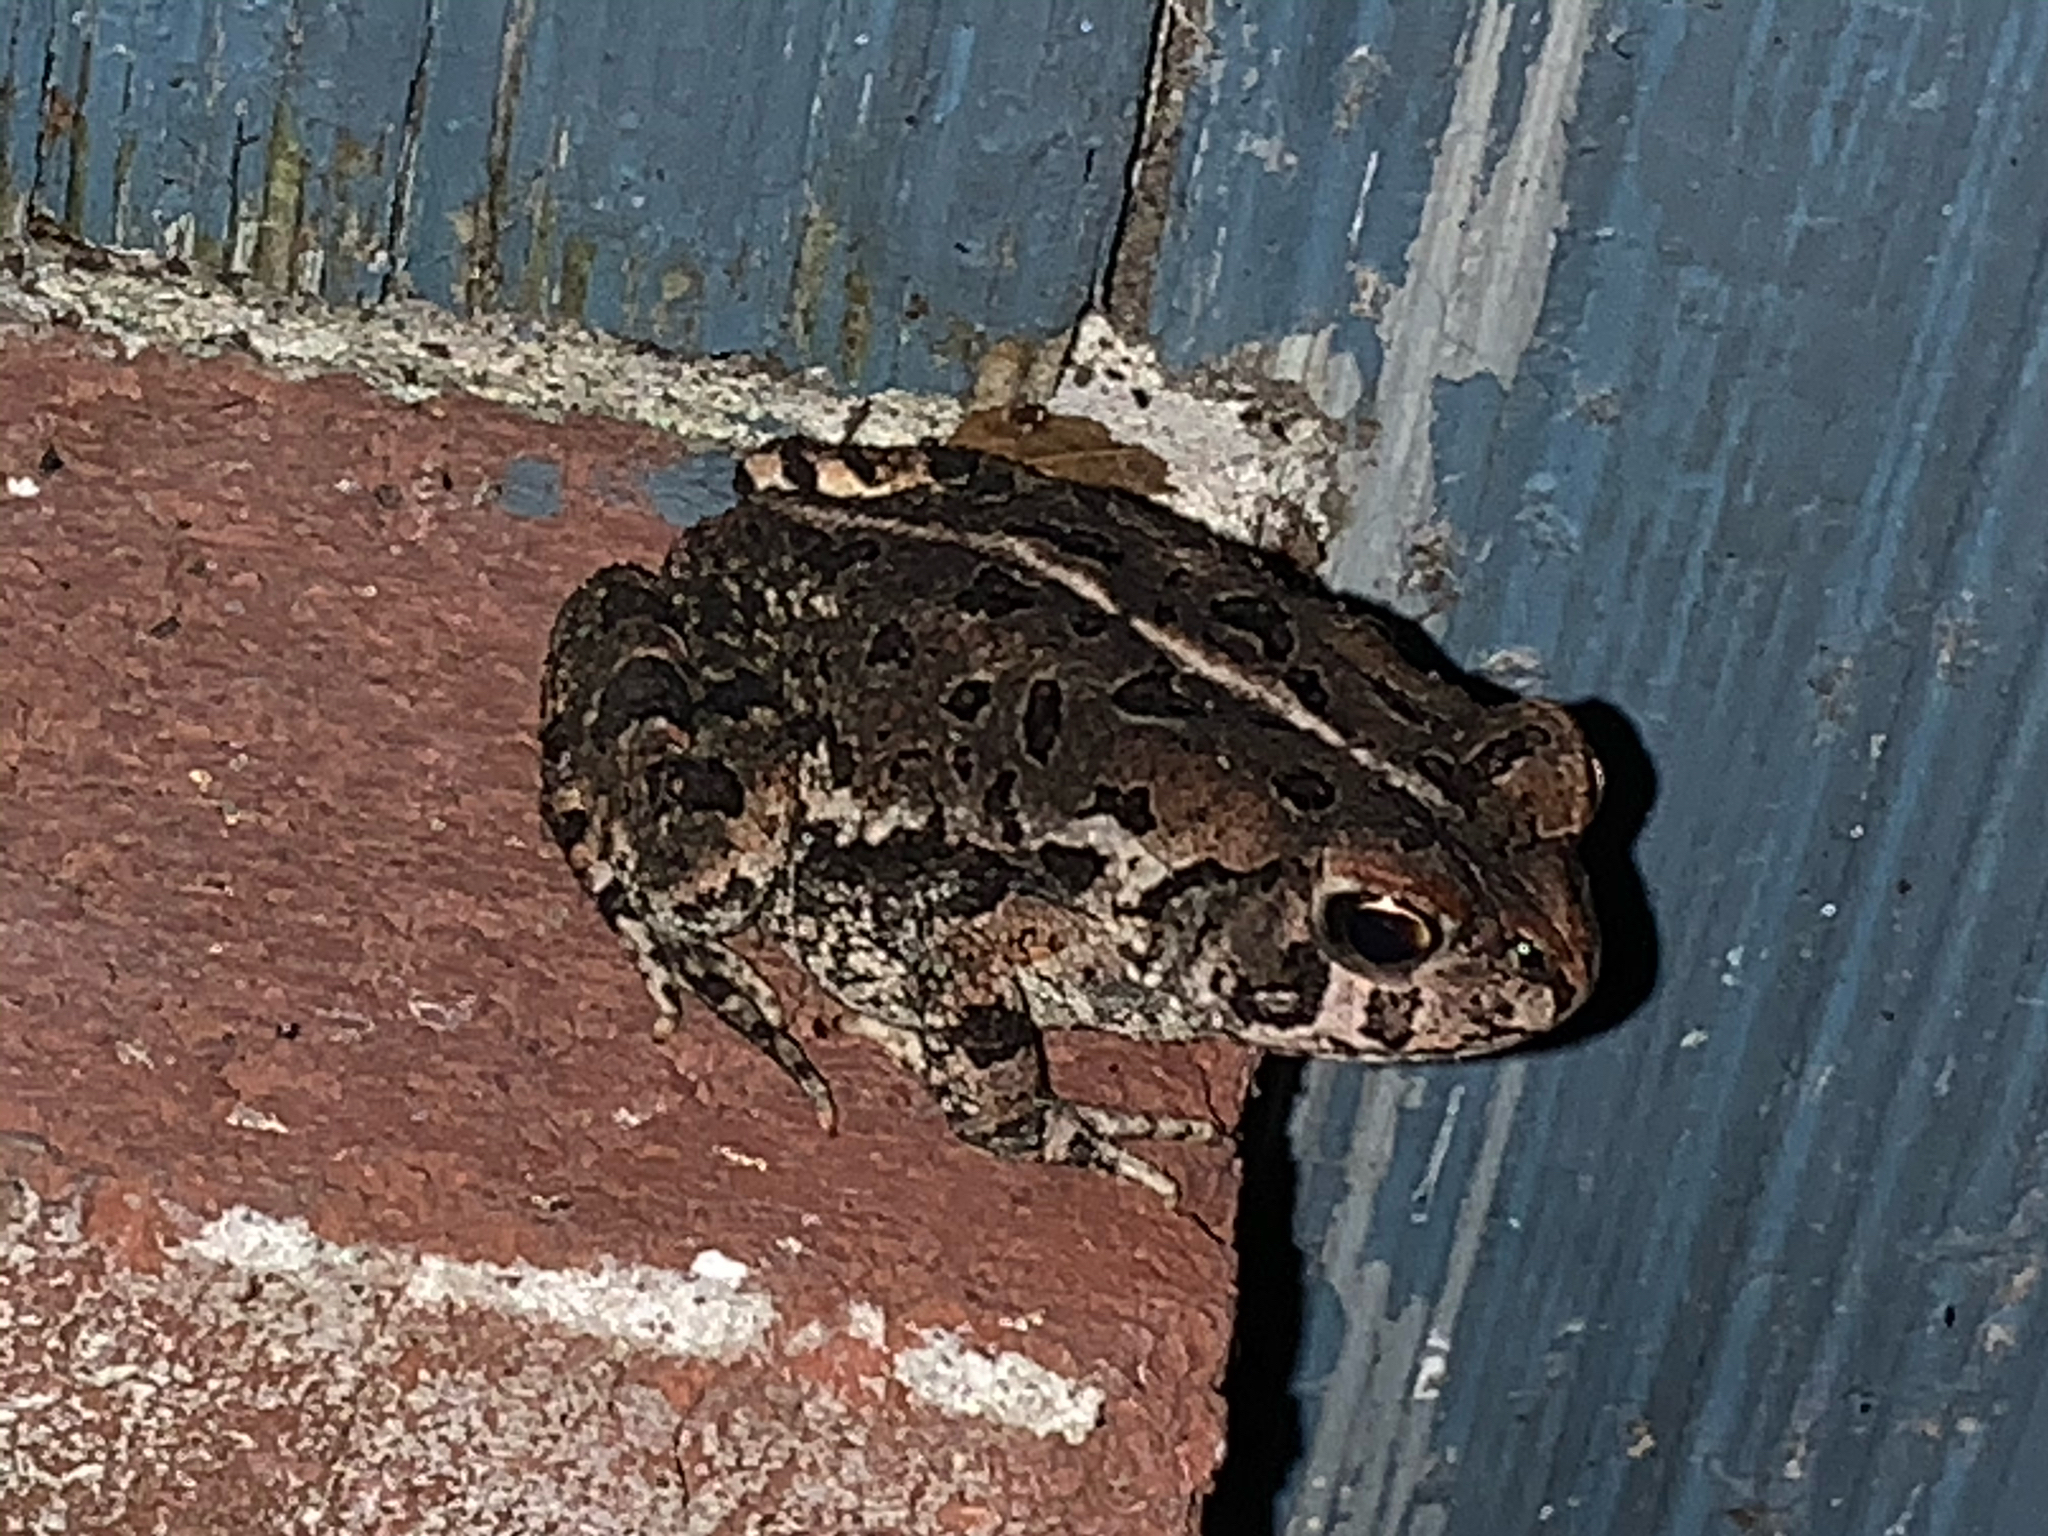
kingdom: Animalia
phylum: Chordata
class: Amphibia
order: Anura
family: Bufonidae
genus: Anaxyrus
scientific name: Anaxyrus fowleri
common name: Fowler's toad
